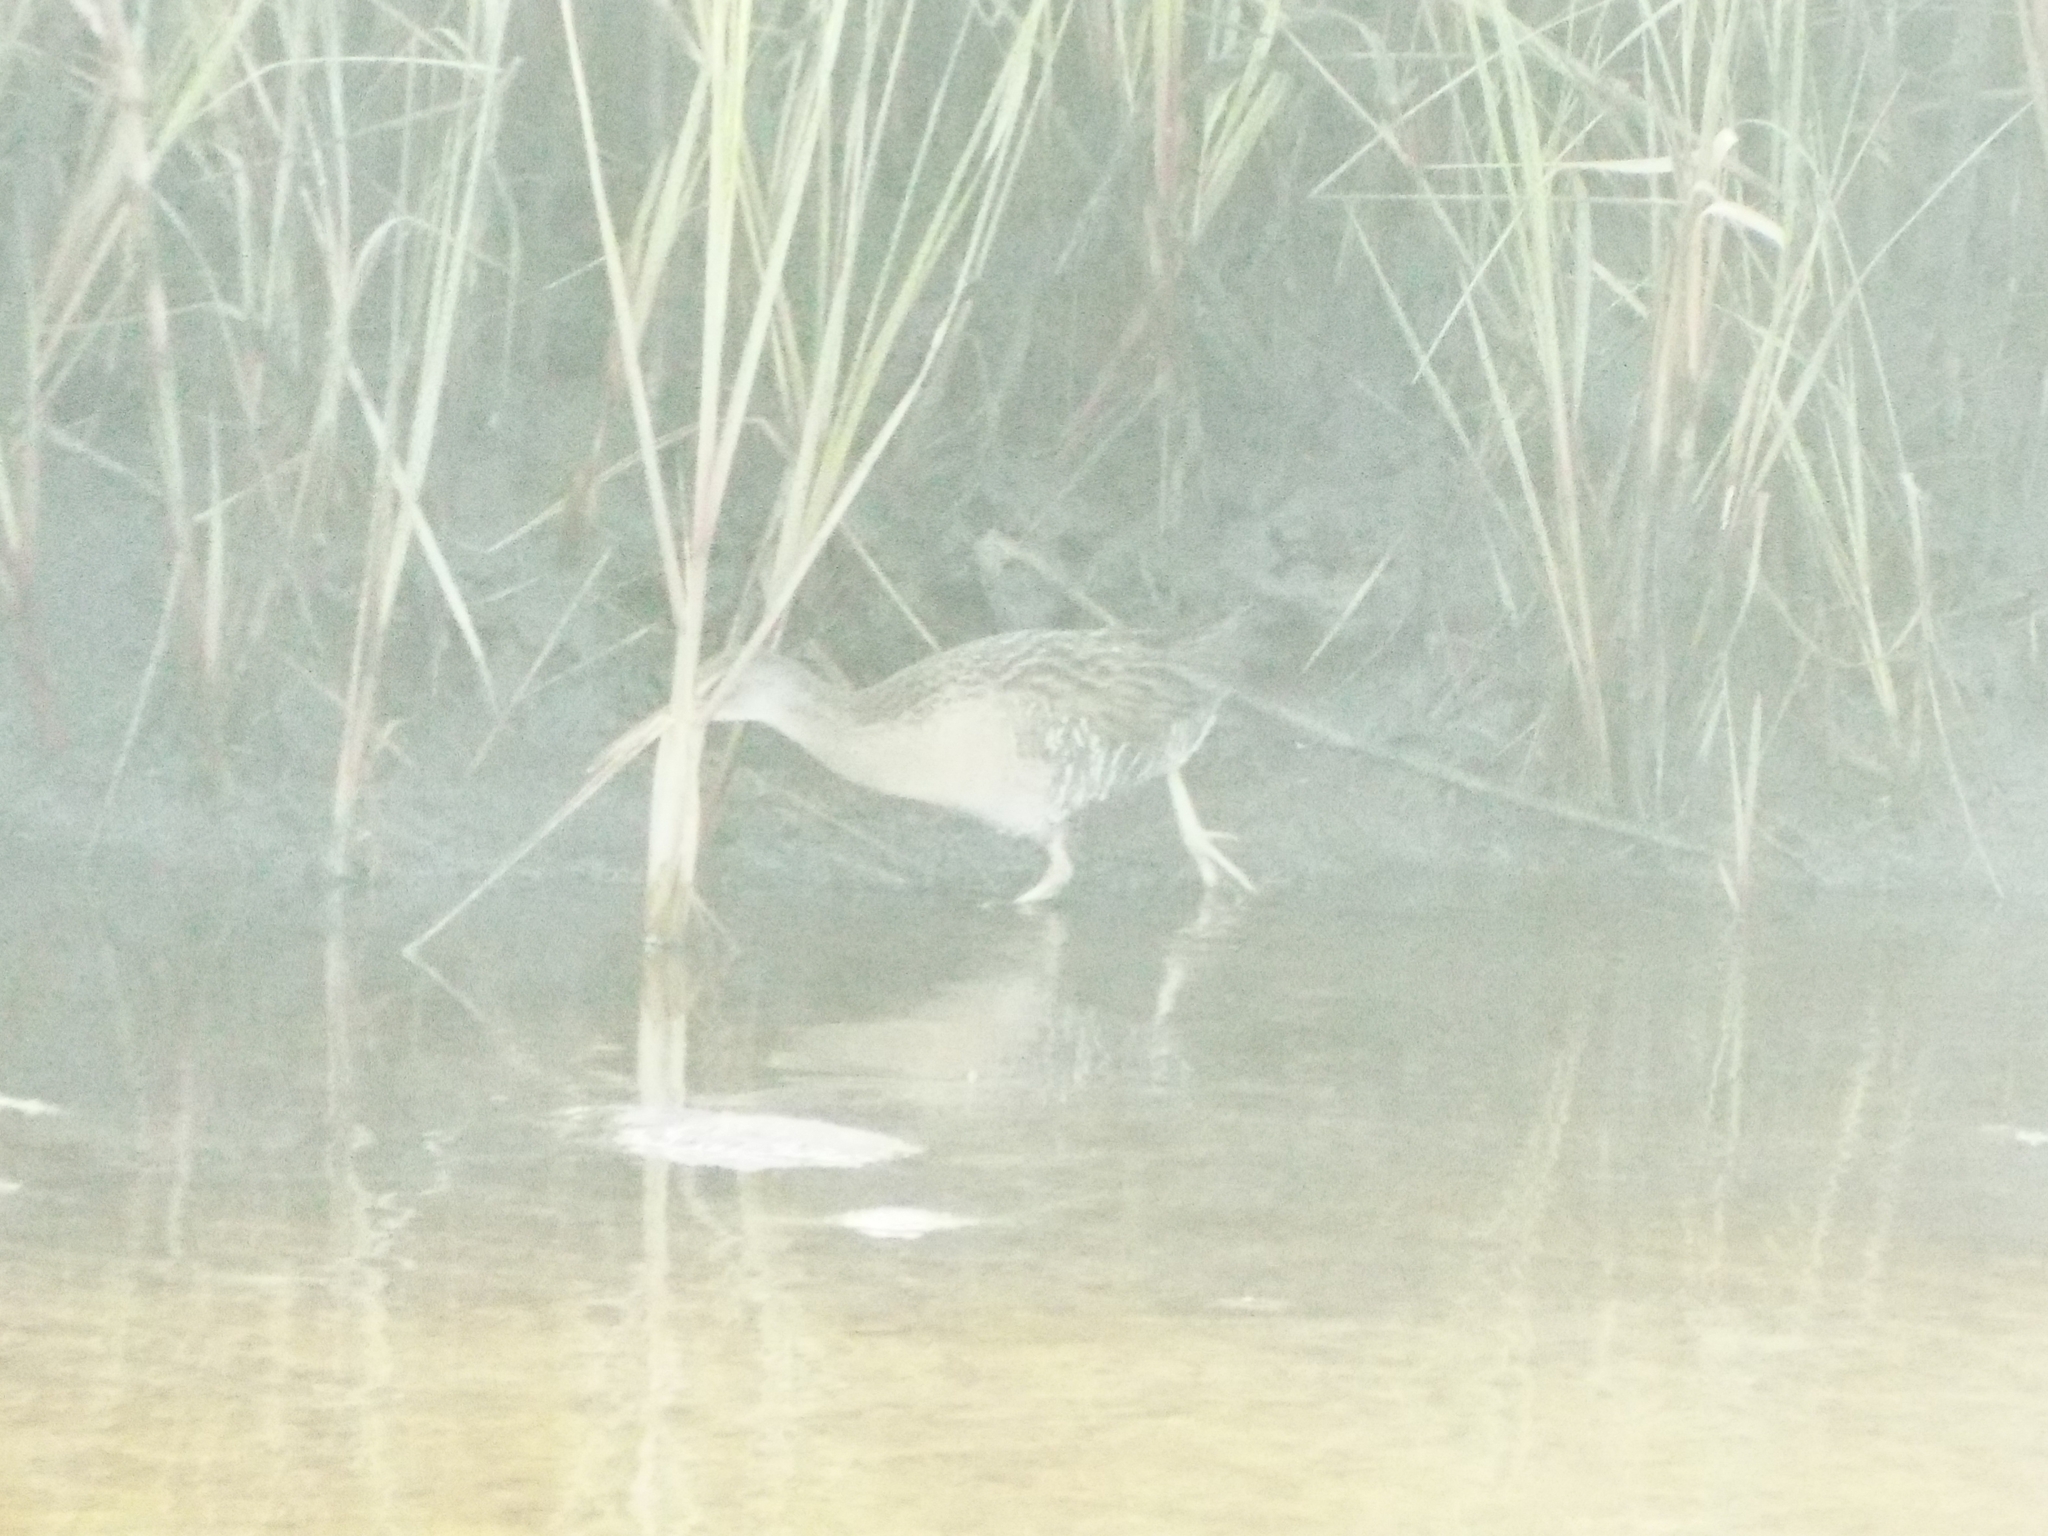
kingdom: Animalia
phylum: Chordata
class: Aves
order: Gruiformes
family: Rallidae
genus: Rallus
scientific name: Rallus crepitans
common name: Clapper rail
